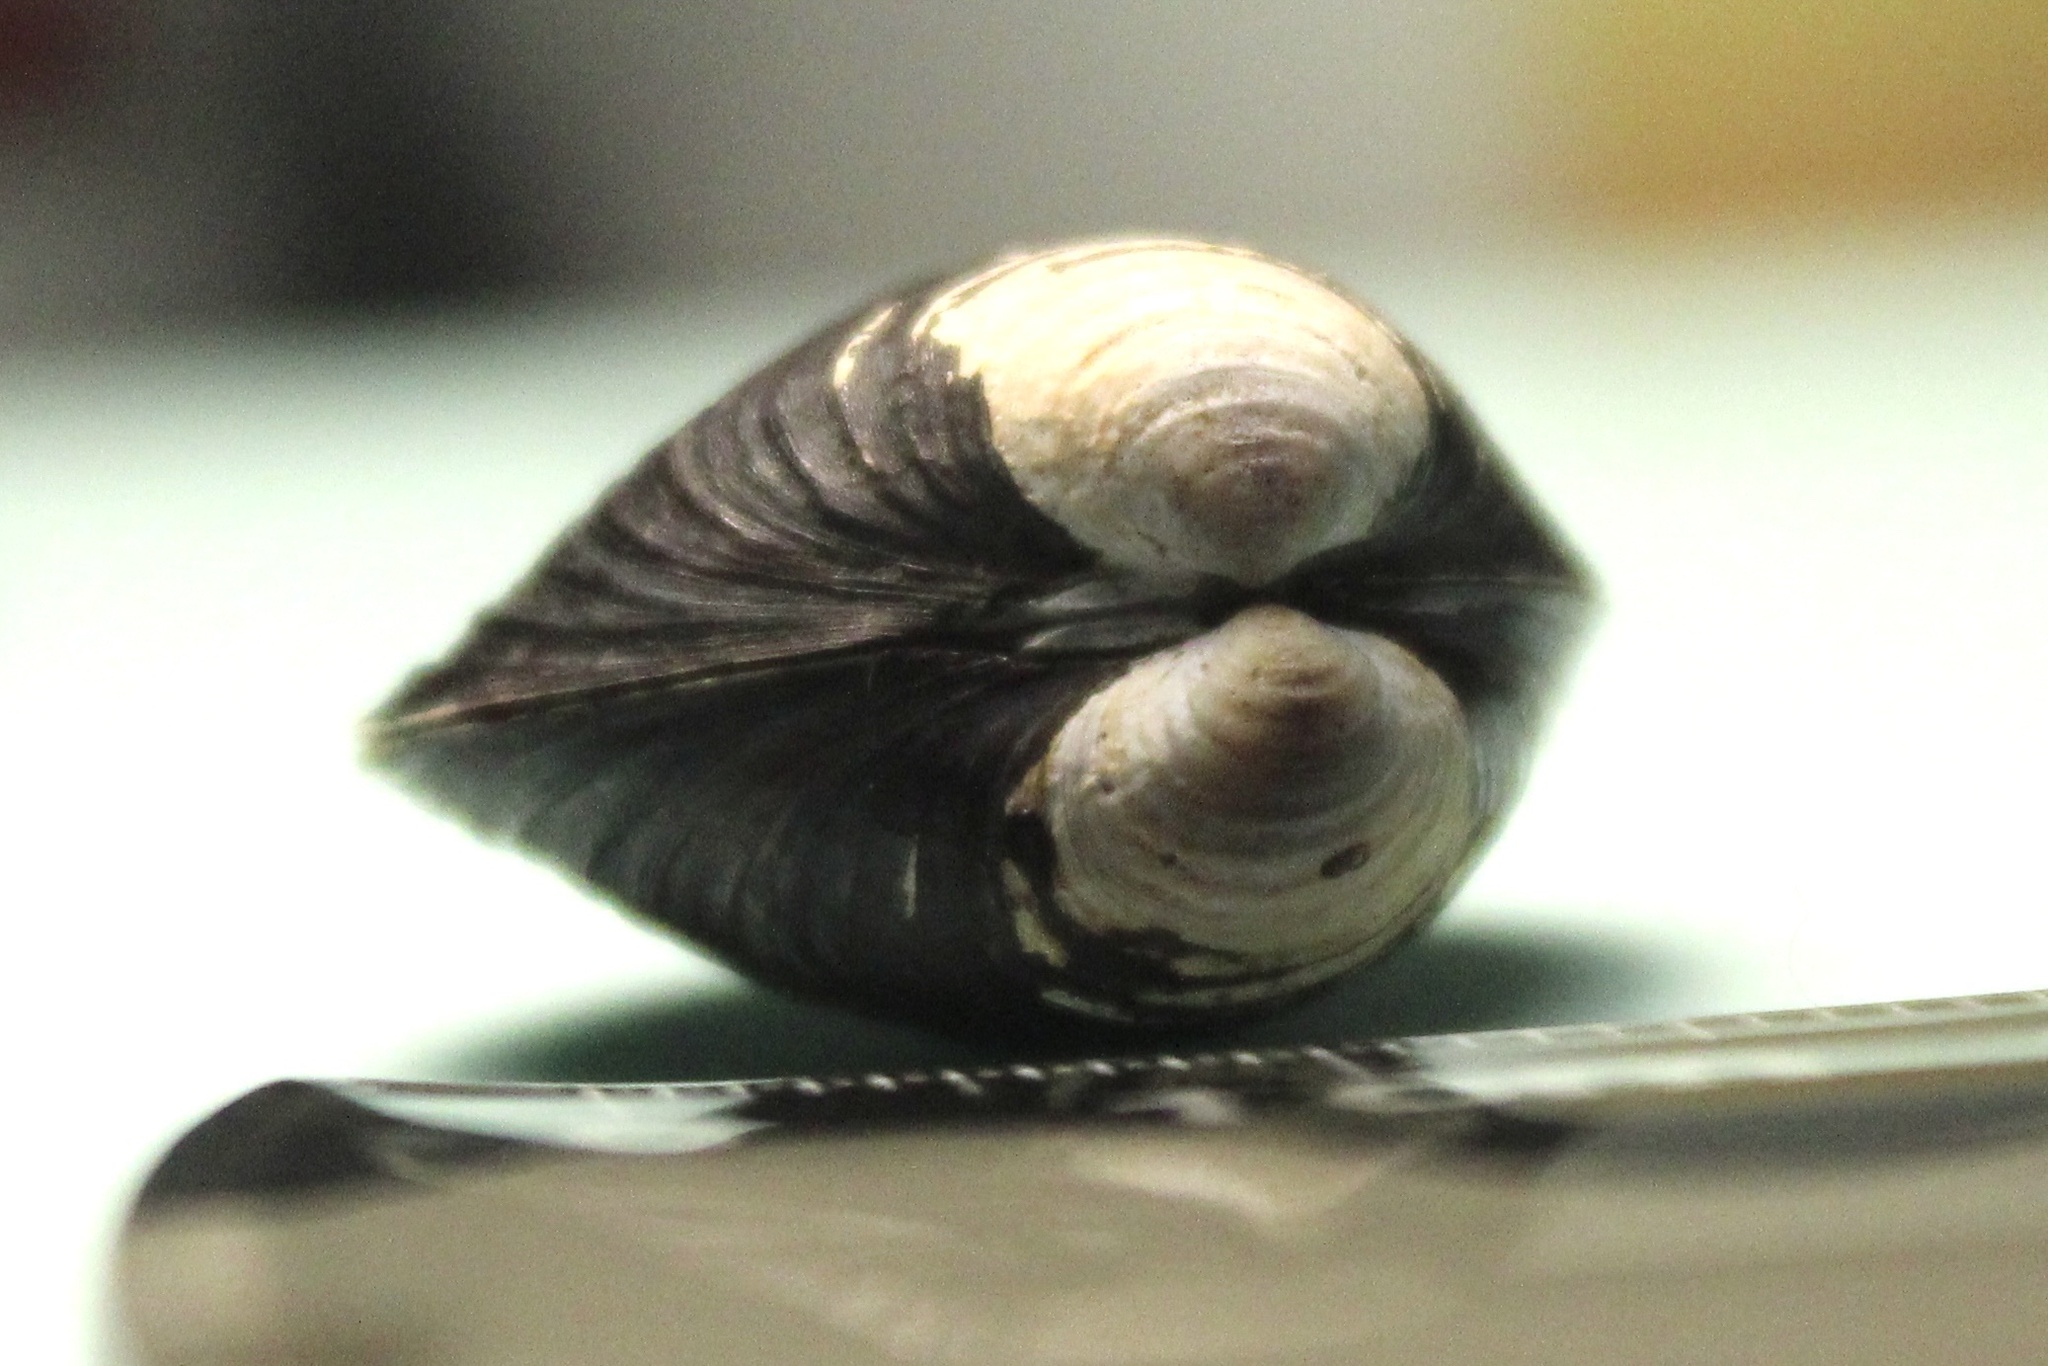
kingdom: Animalia
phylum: Mollusca
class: Bivalvia
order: Venerida
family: Cyrenidae
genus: Corbicula
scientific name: Corbicula fluminea
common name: Asian clam
